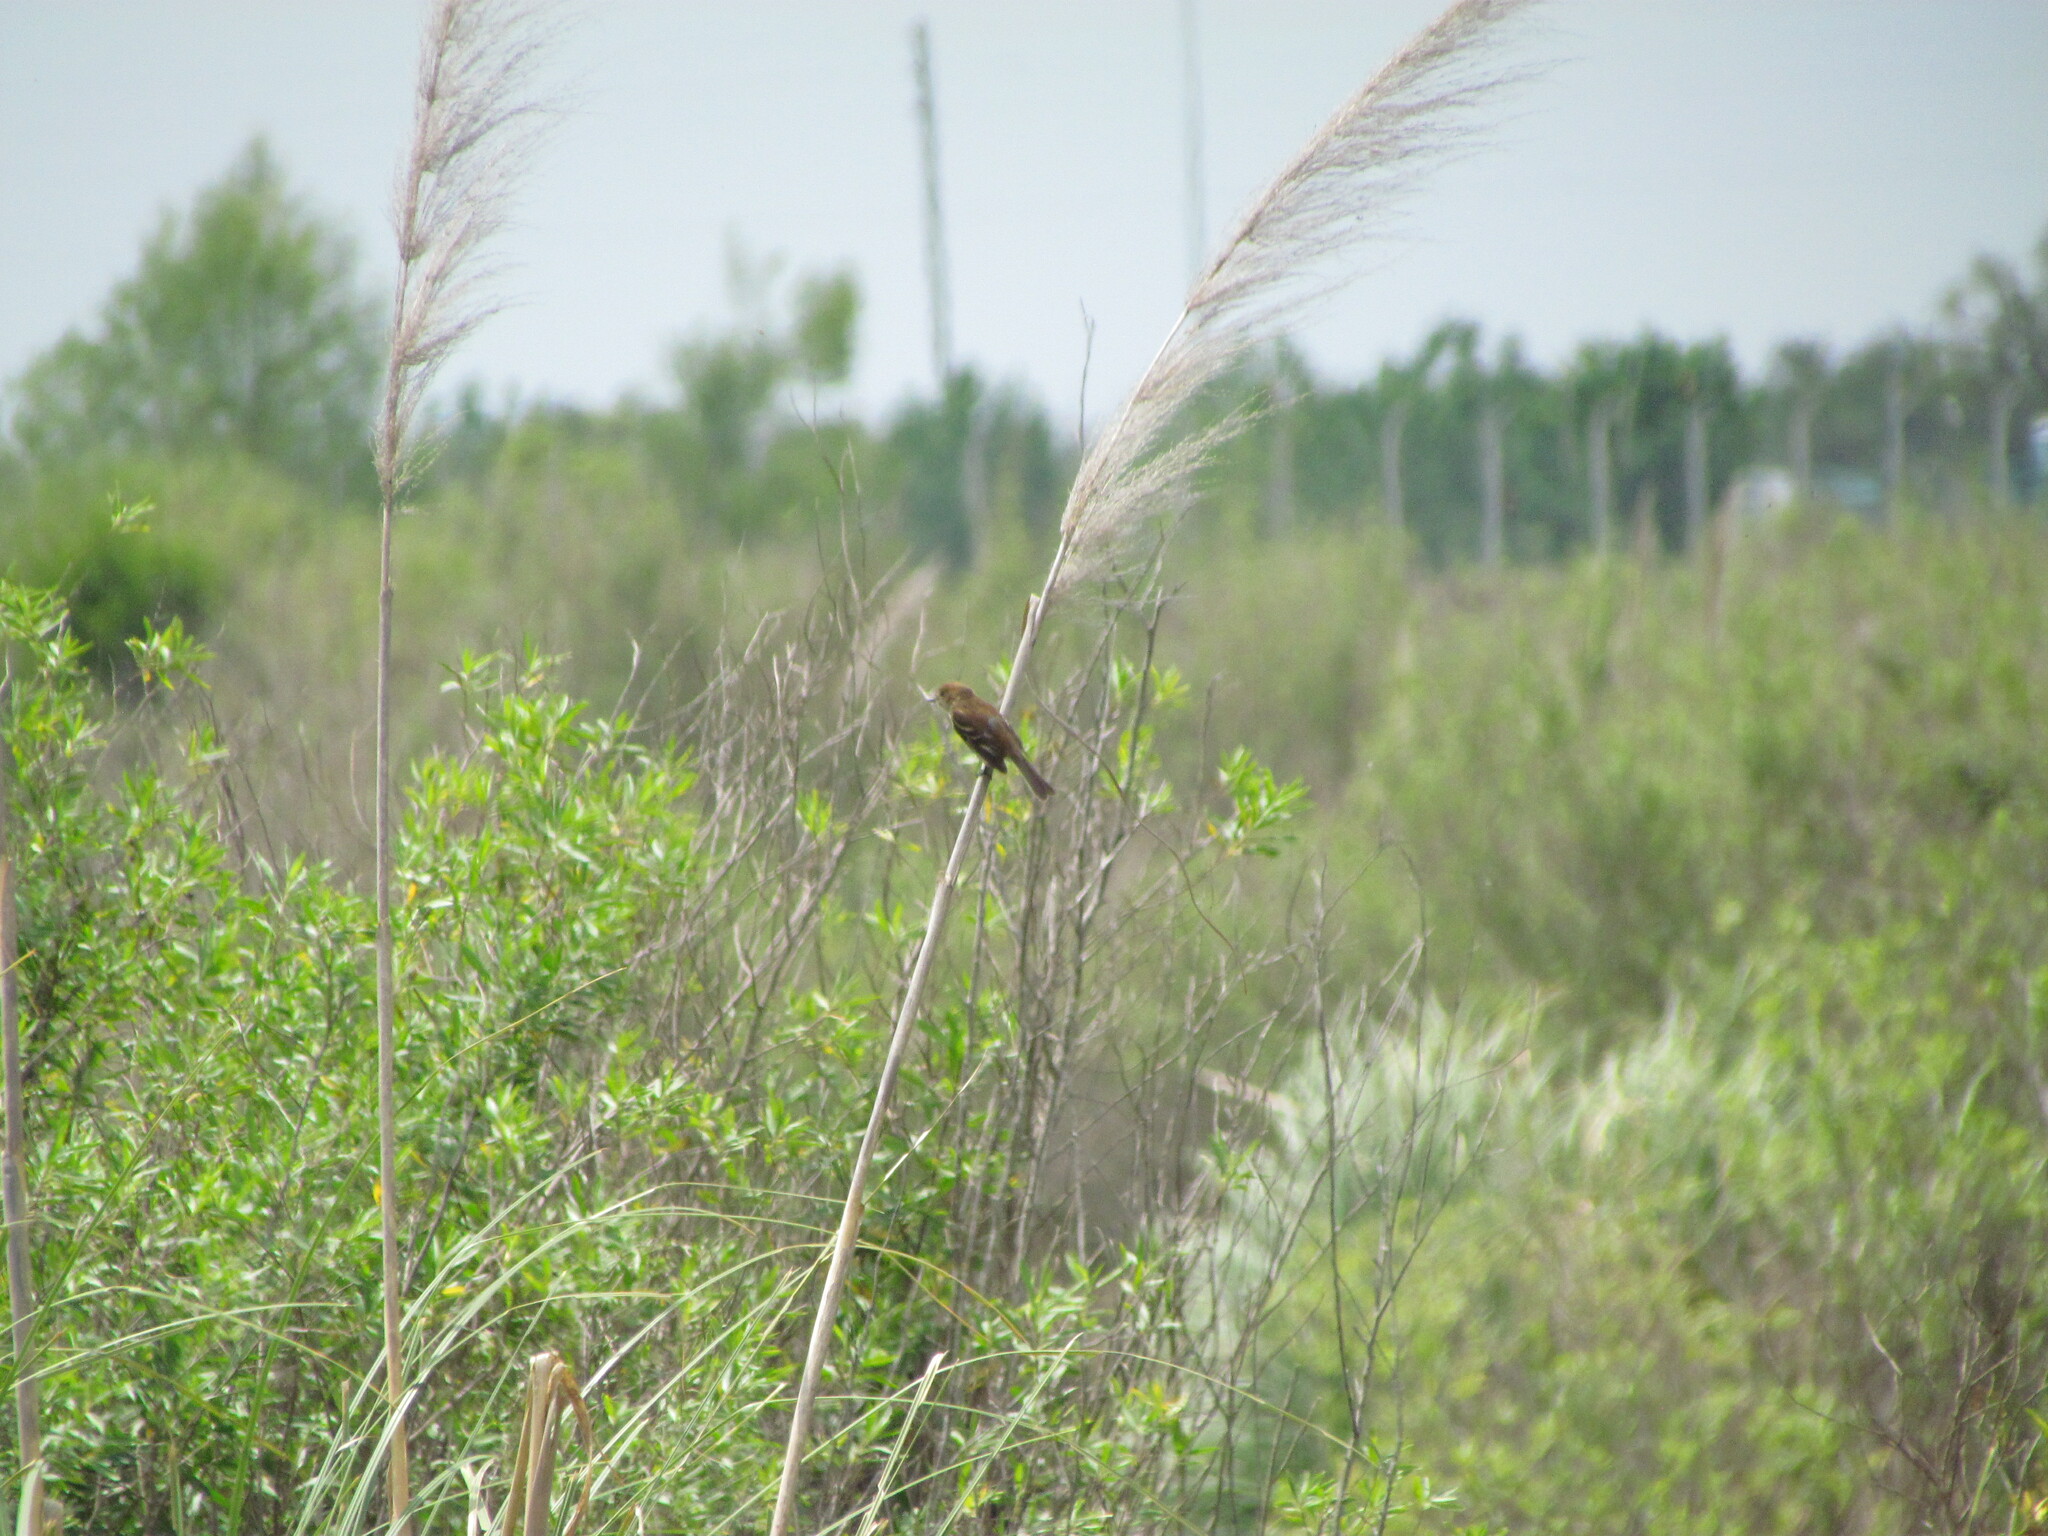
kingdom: Animalia
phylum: Chordata
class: Aves
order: Passeriformes
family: Tyrannidae
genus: Myiophobus
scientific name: Myiophobus fasciatus
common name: Bran-colored flycatcher
